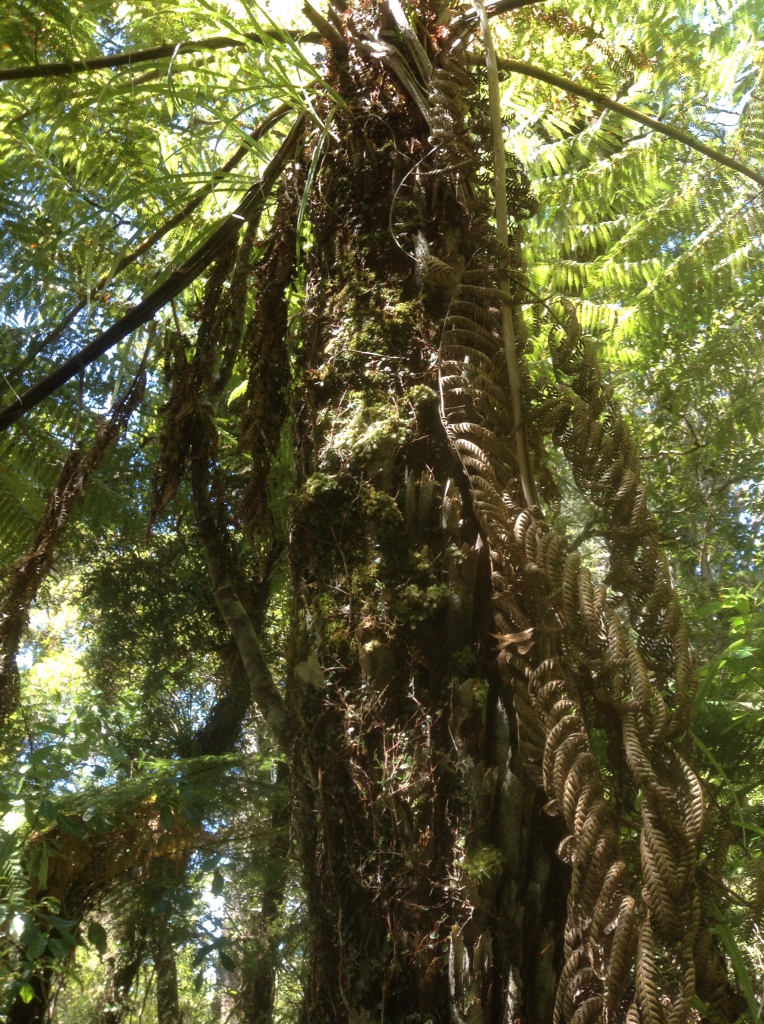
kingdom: Plantae
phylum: Tracheophyta
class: Polypodiopsida
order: Cyatheales
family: Cyatheaceae
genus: Alsophila
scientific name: Alsophila dealbata
